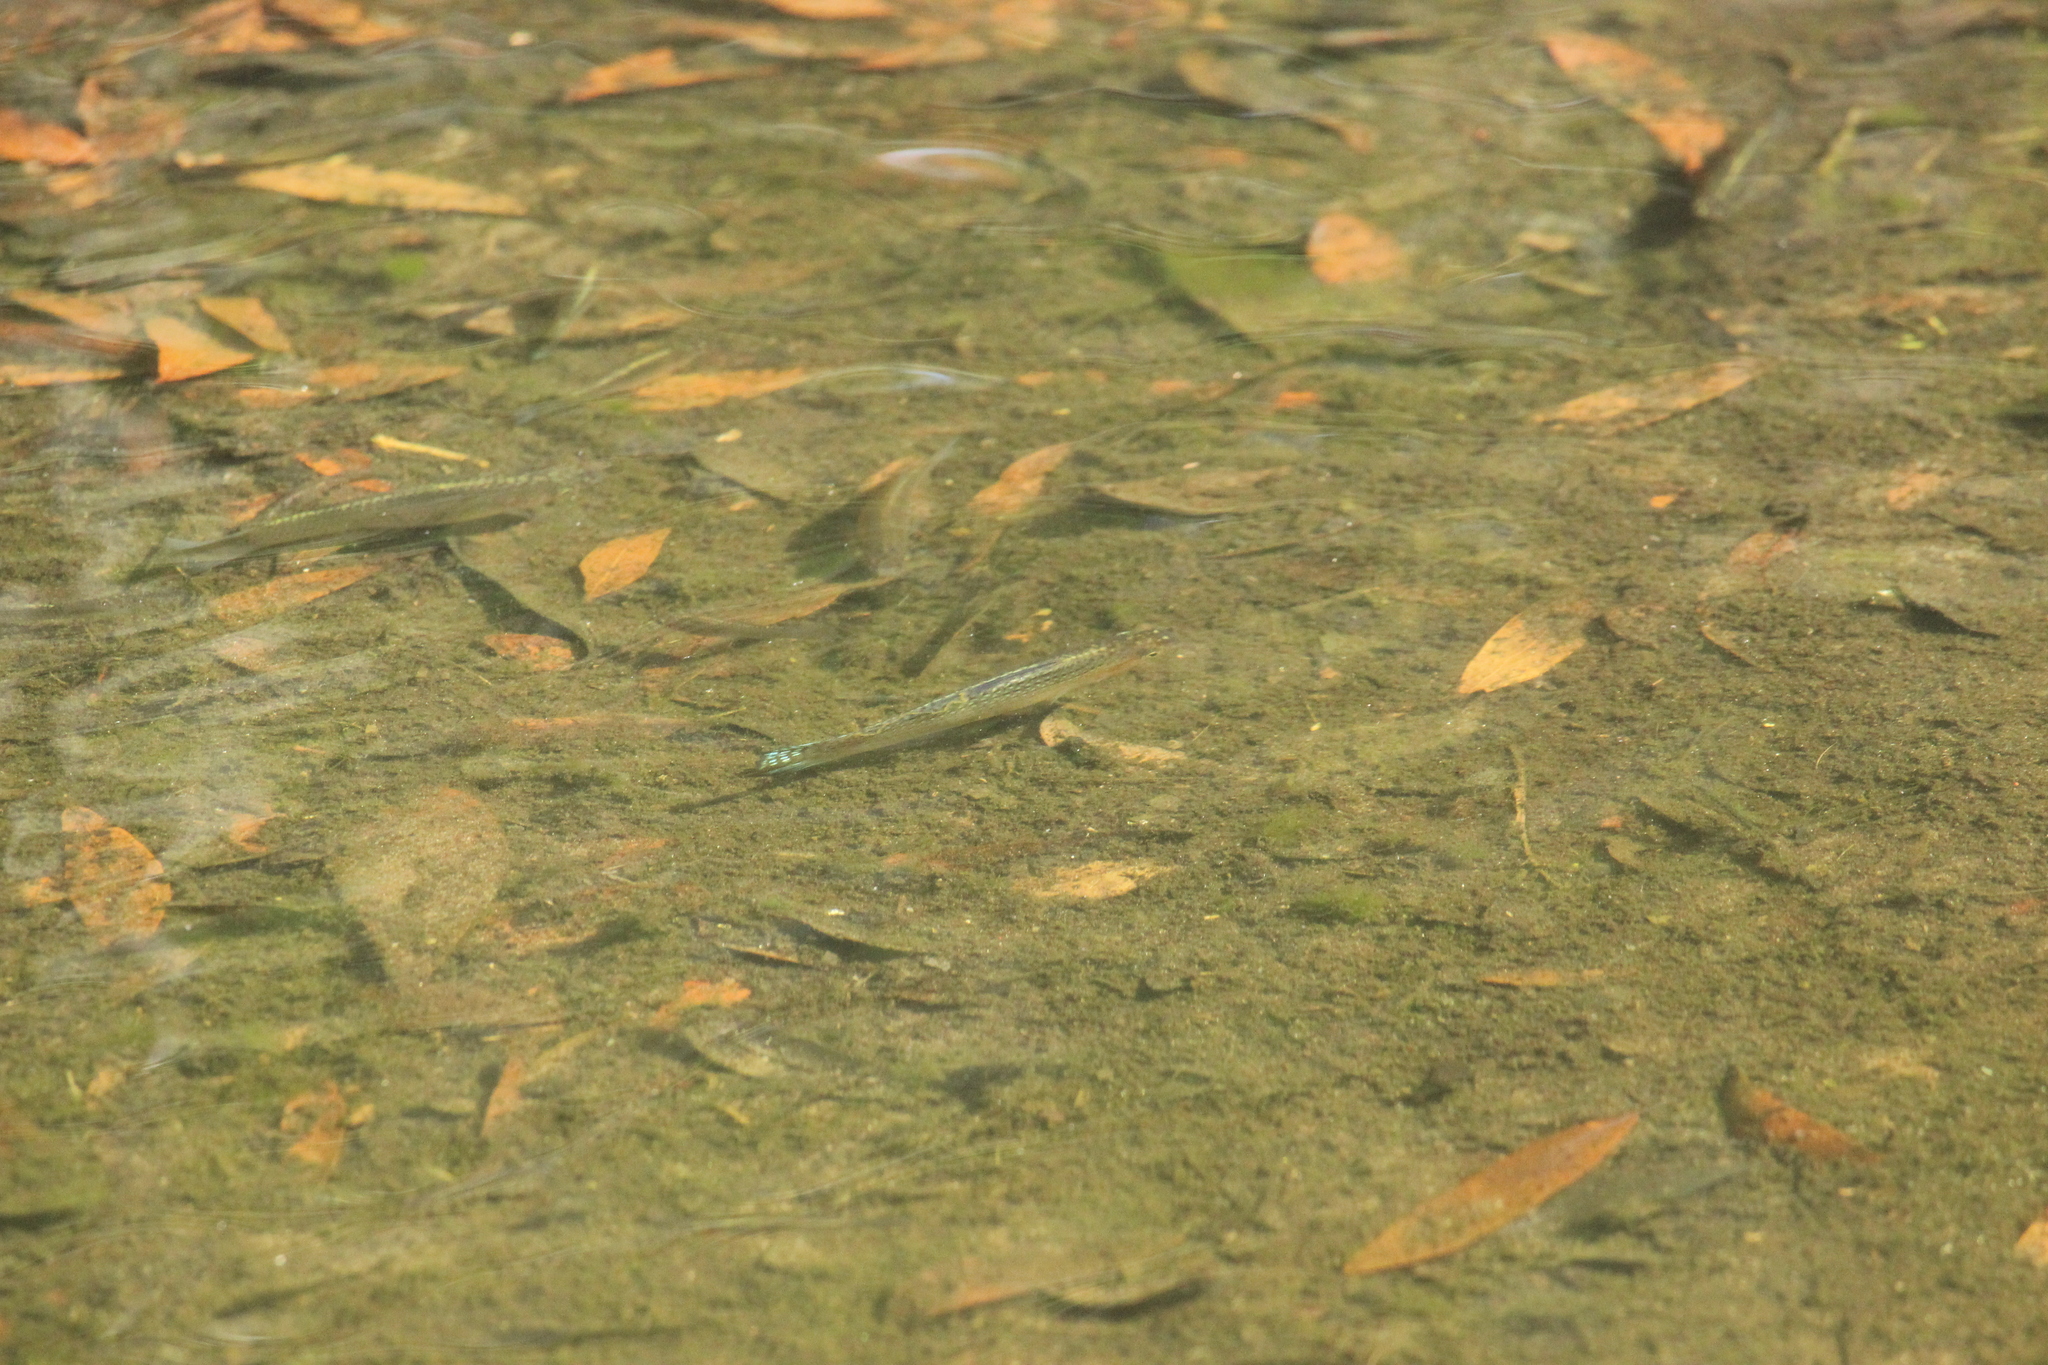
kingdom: Animalia
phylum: Chordata
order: Cyprinodontiformes
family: Poeciliidae
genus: Poecilia
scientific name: Poecilia latipinna
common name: Sailfin molly
